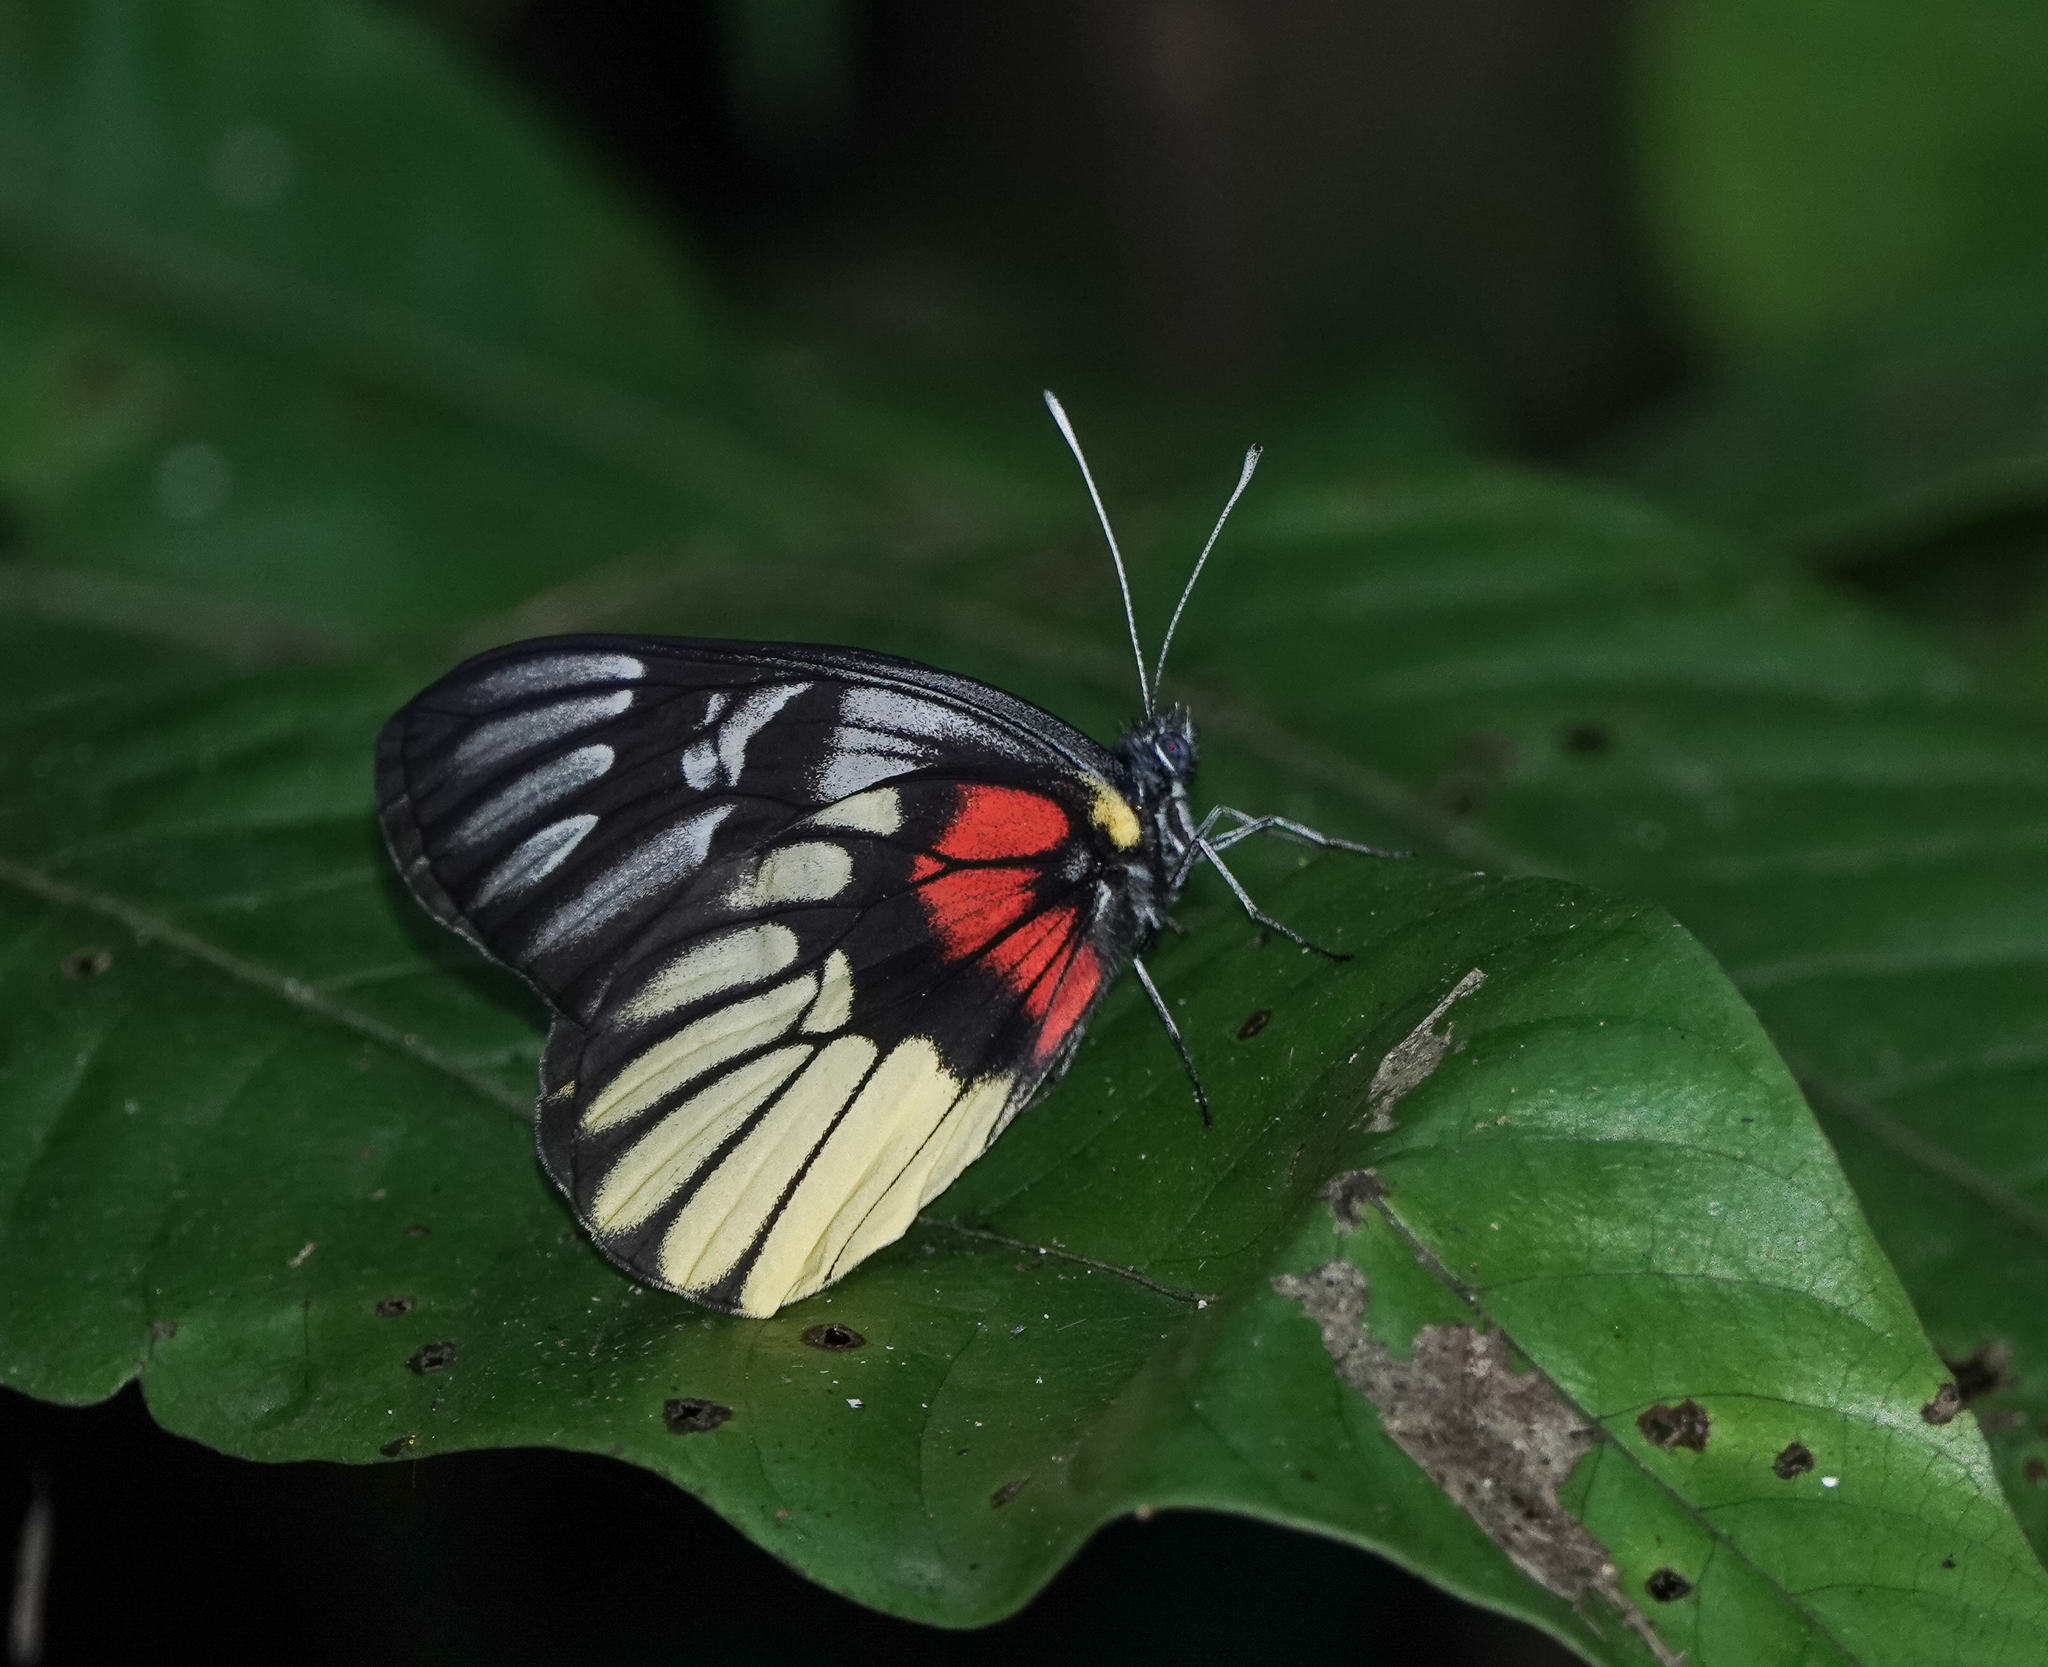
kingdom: Animalia
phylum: Arthropoda
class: Insecta
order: Lepidoptera
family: Pieridae
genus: Delias
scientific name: Delias acalis
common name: Red-breast jezebel
